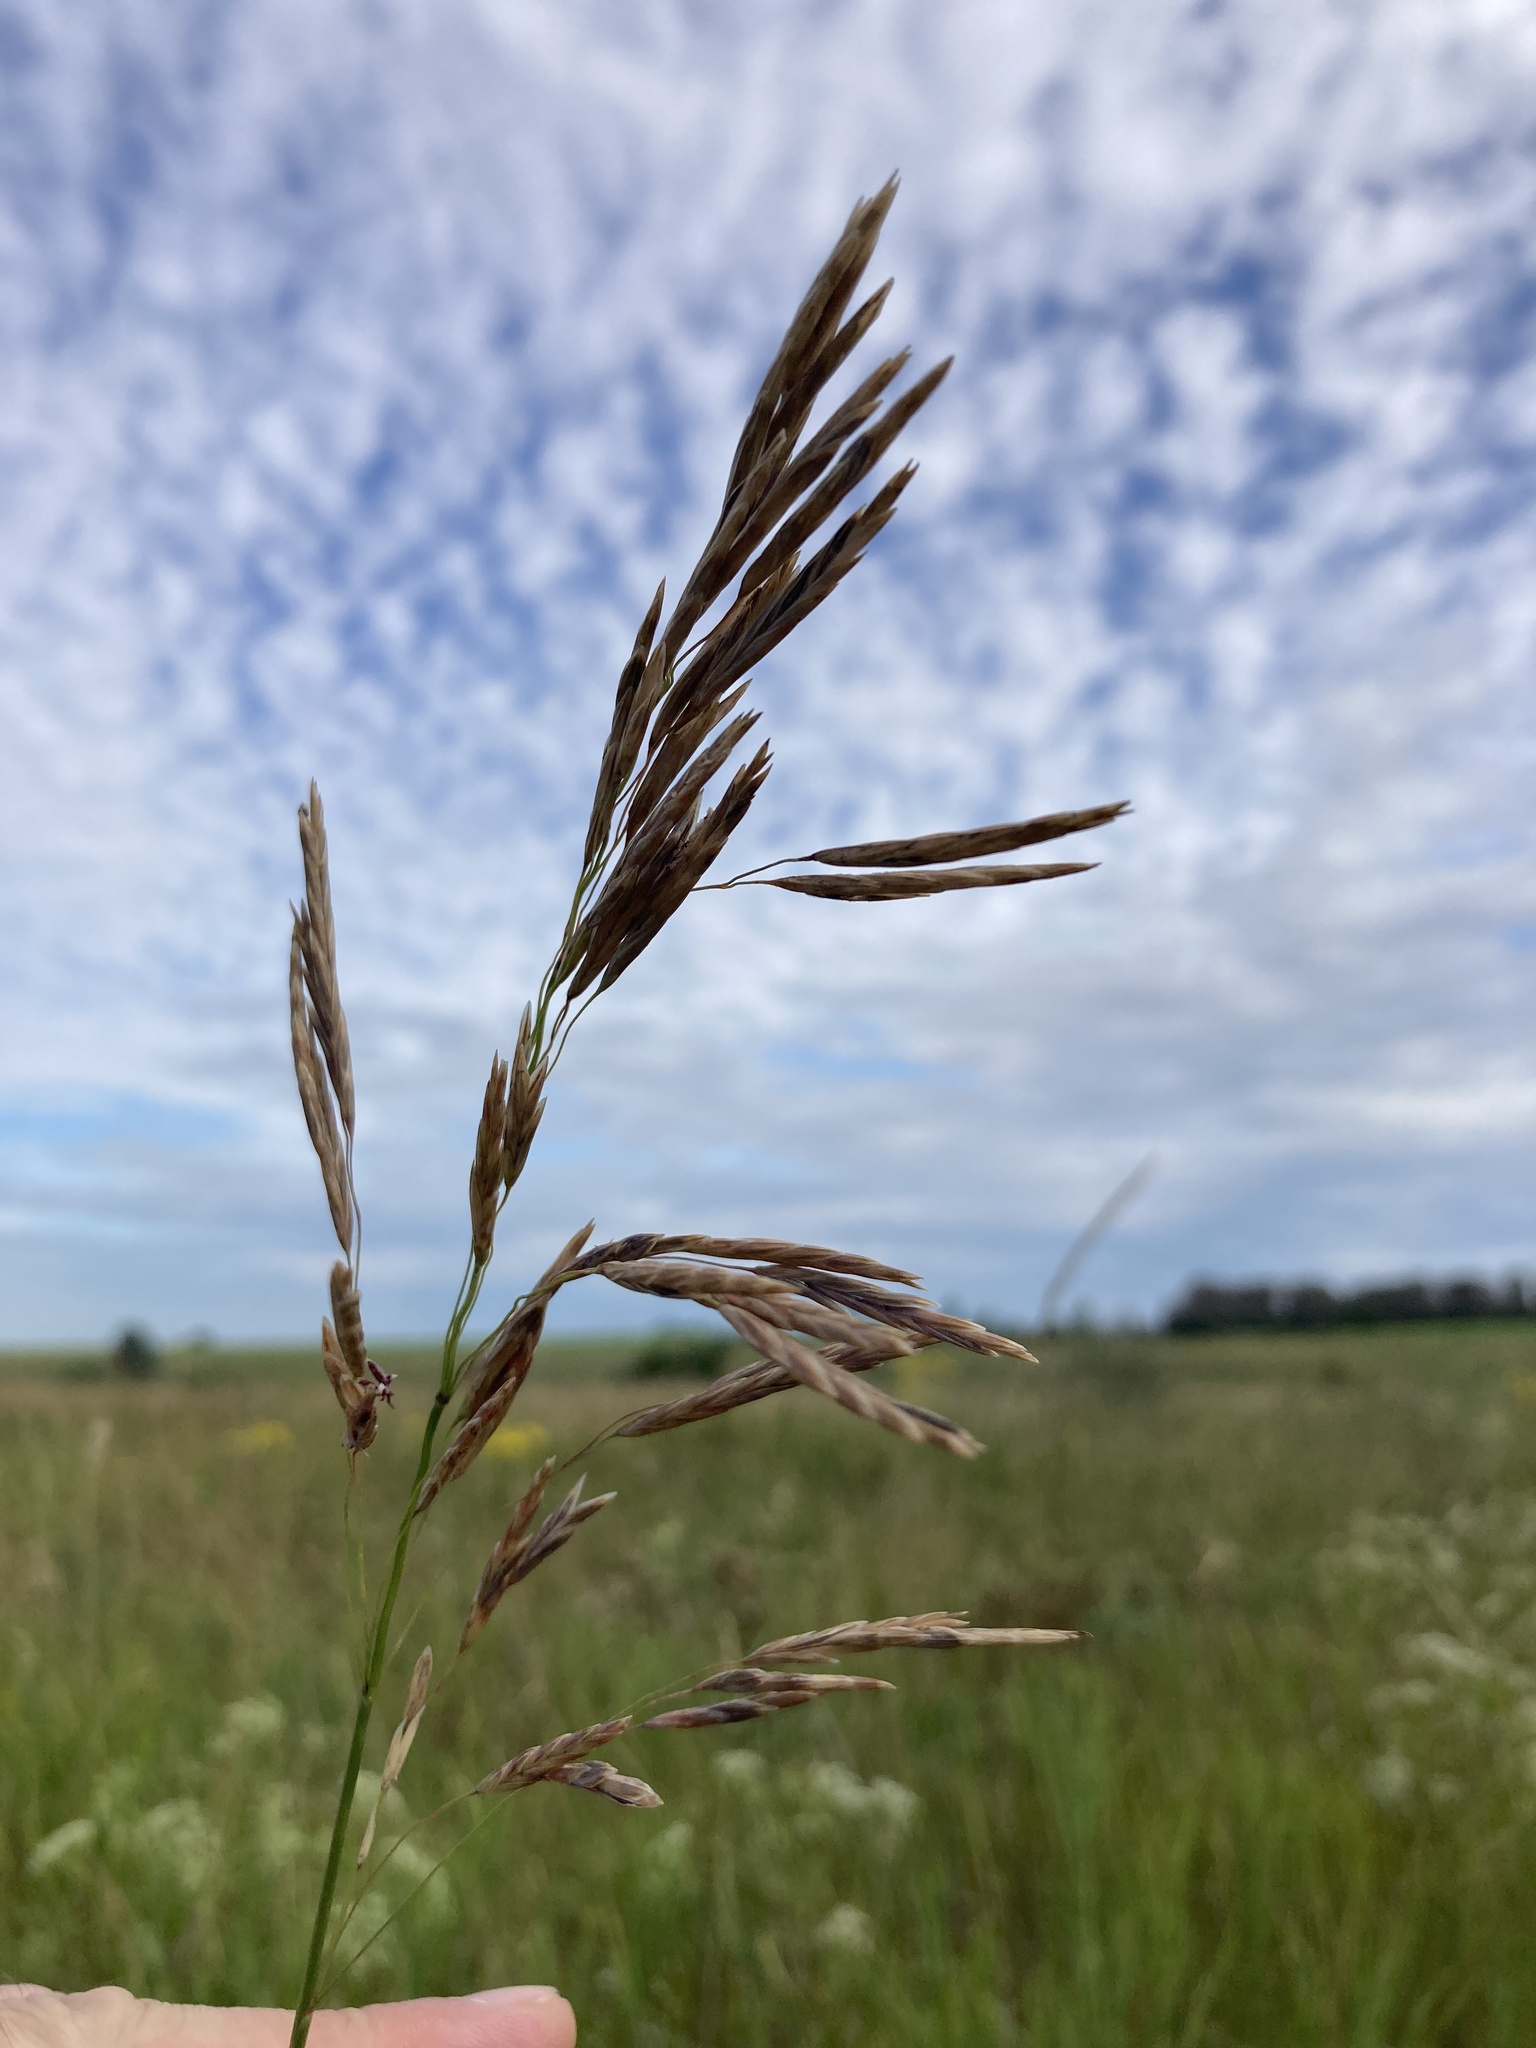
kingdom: Plantae
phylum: Tracheophyta
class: Liliopsida
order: Poales
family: Poaceae
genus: Bromus
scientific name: Bromus inermis
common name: Smooth brome
